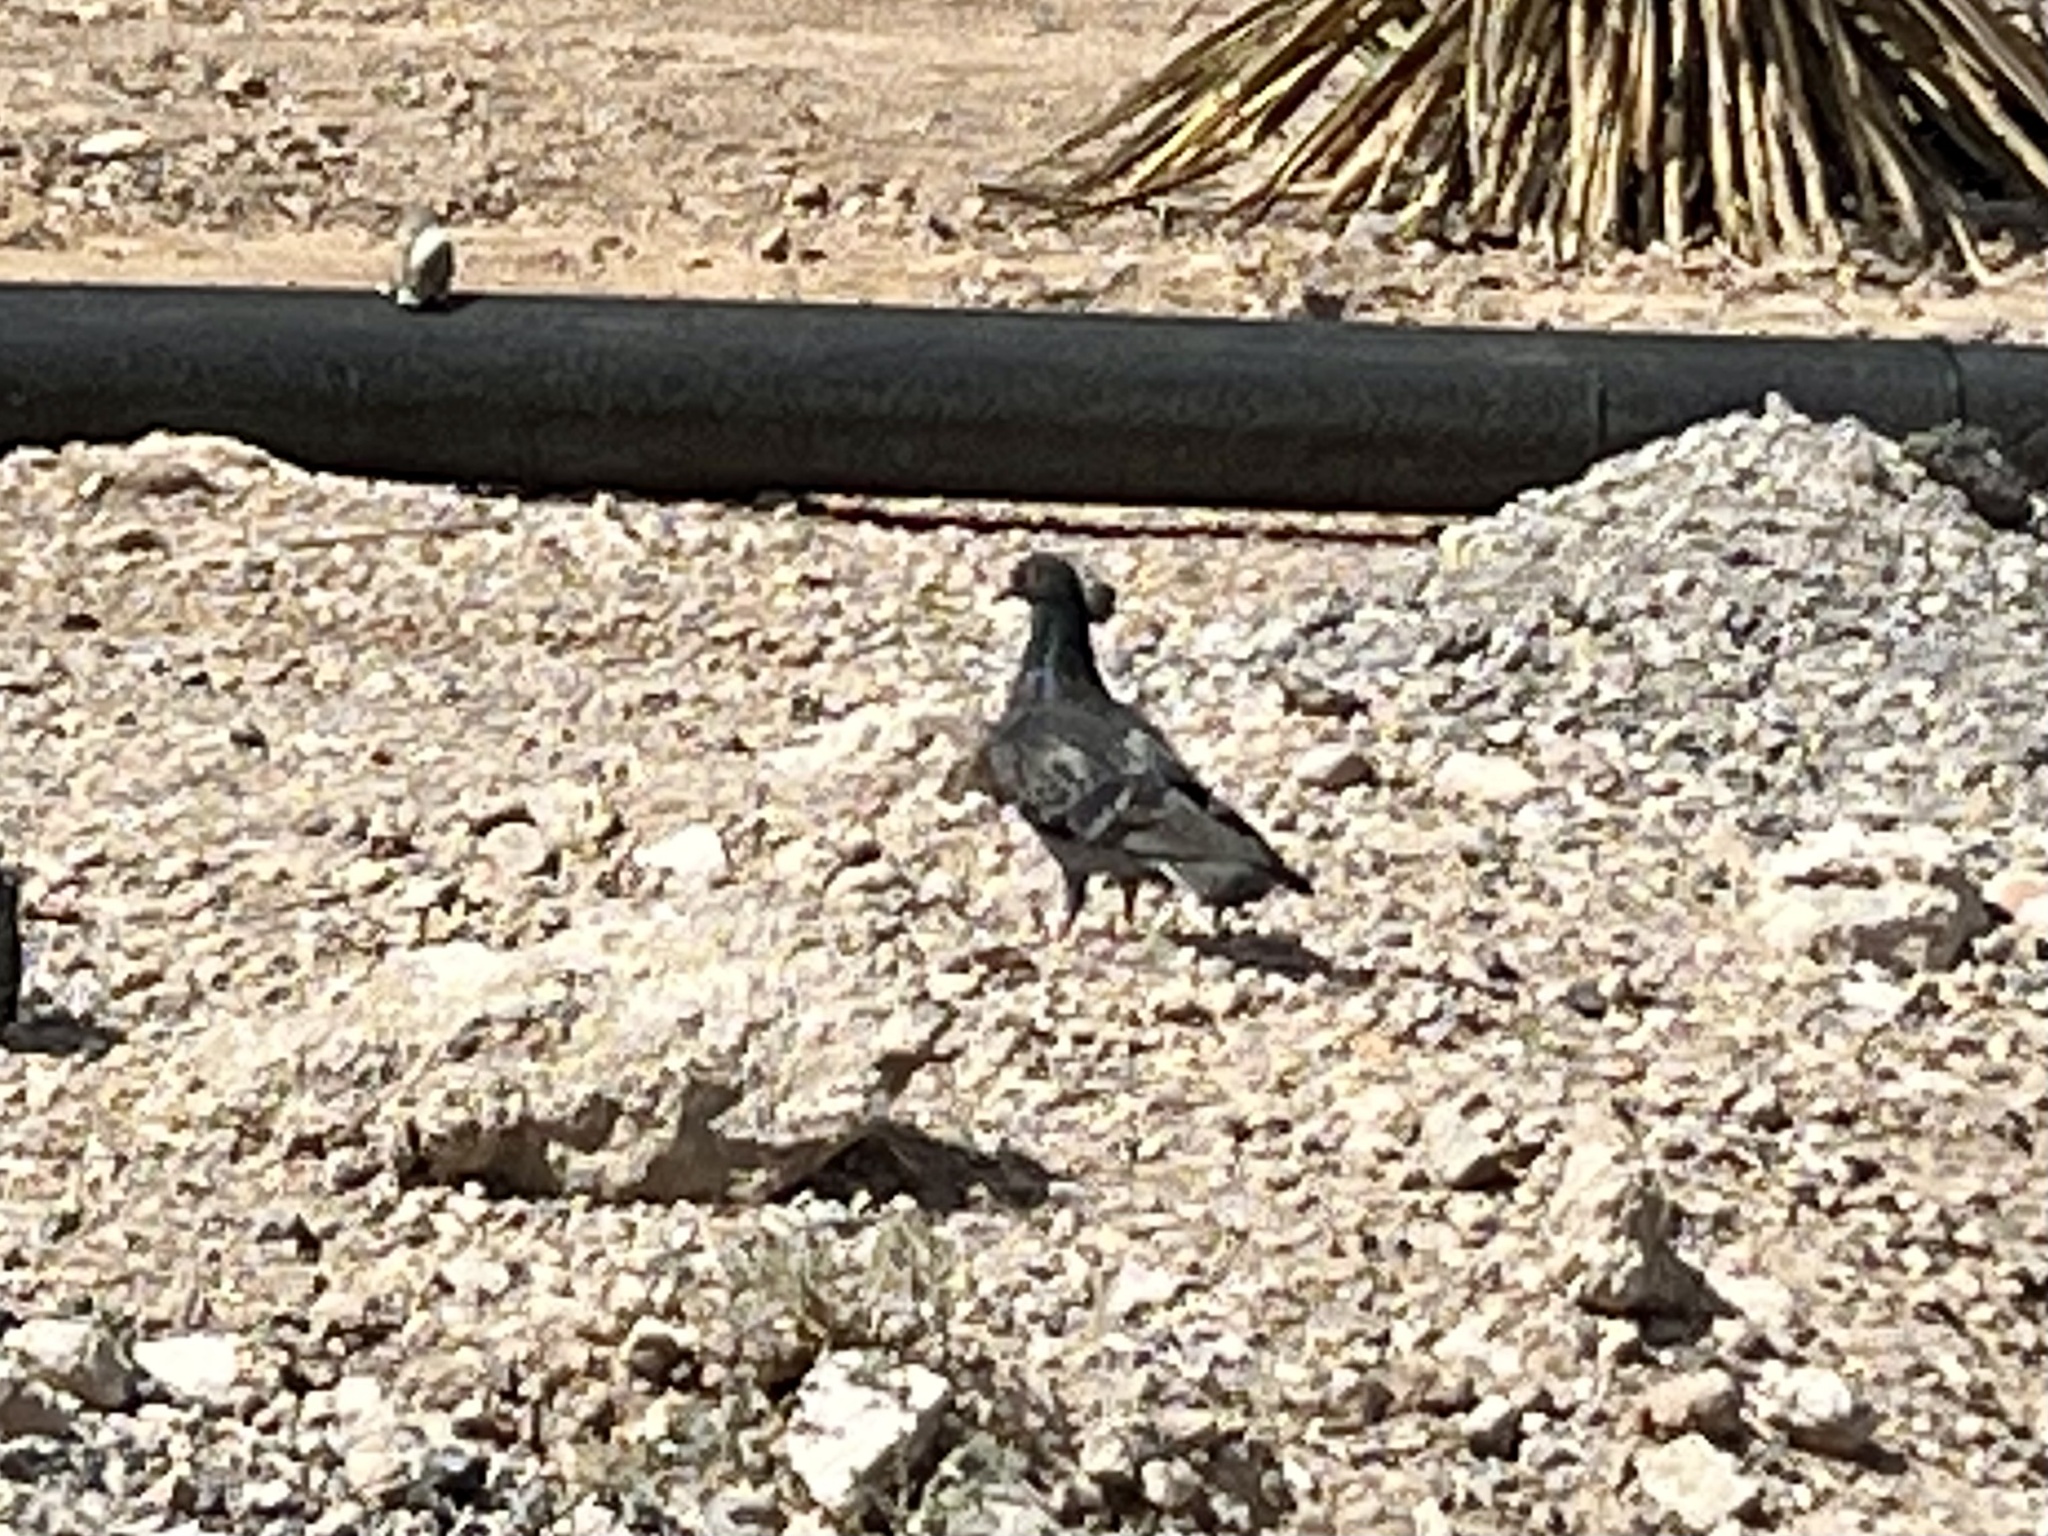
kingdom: Animalia
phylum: Chordata
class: Aves
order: Columbiformes
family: Columbidae
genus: Columba
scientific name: Columba livia
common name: Rock pigeon
